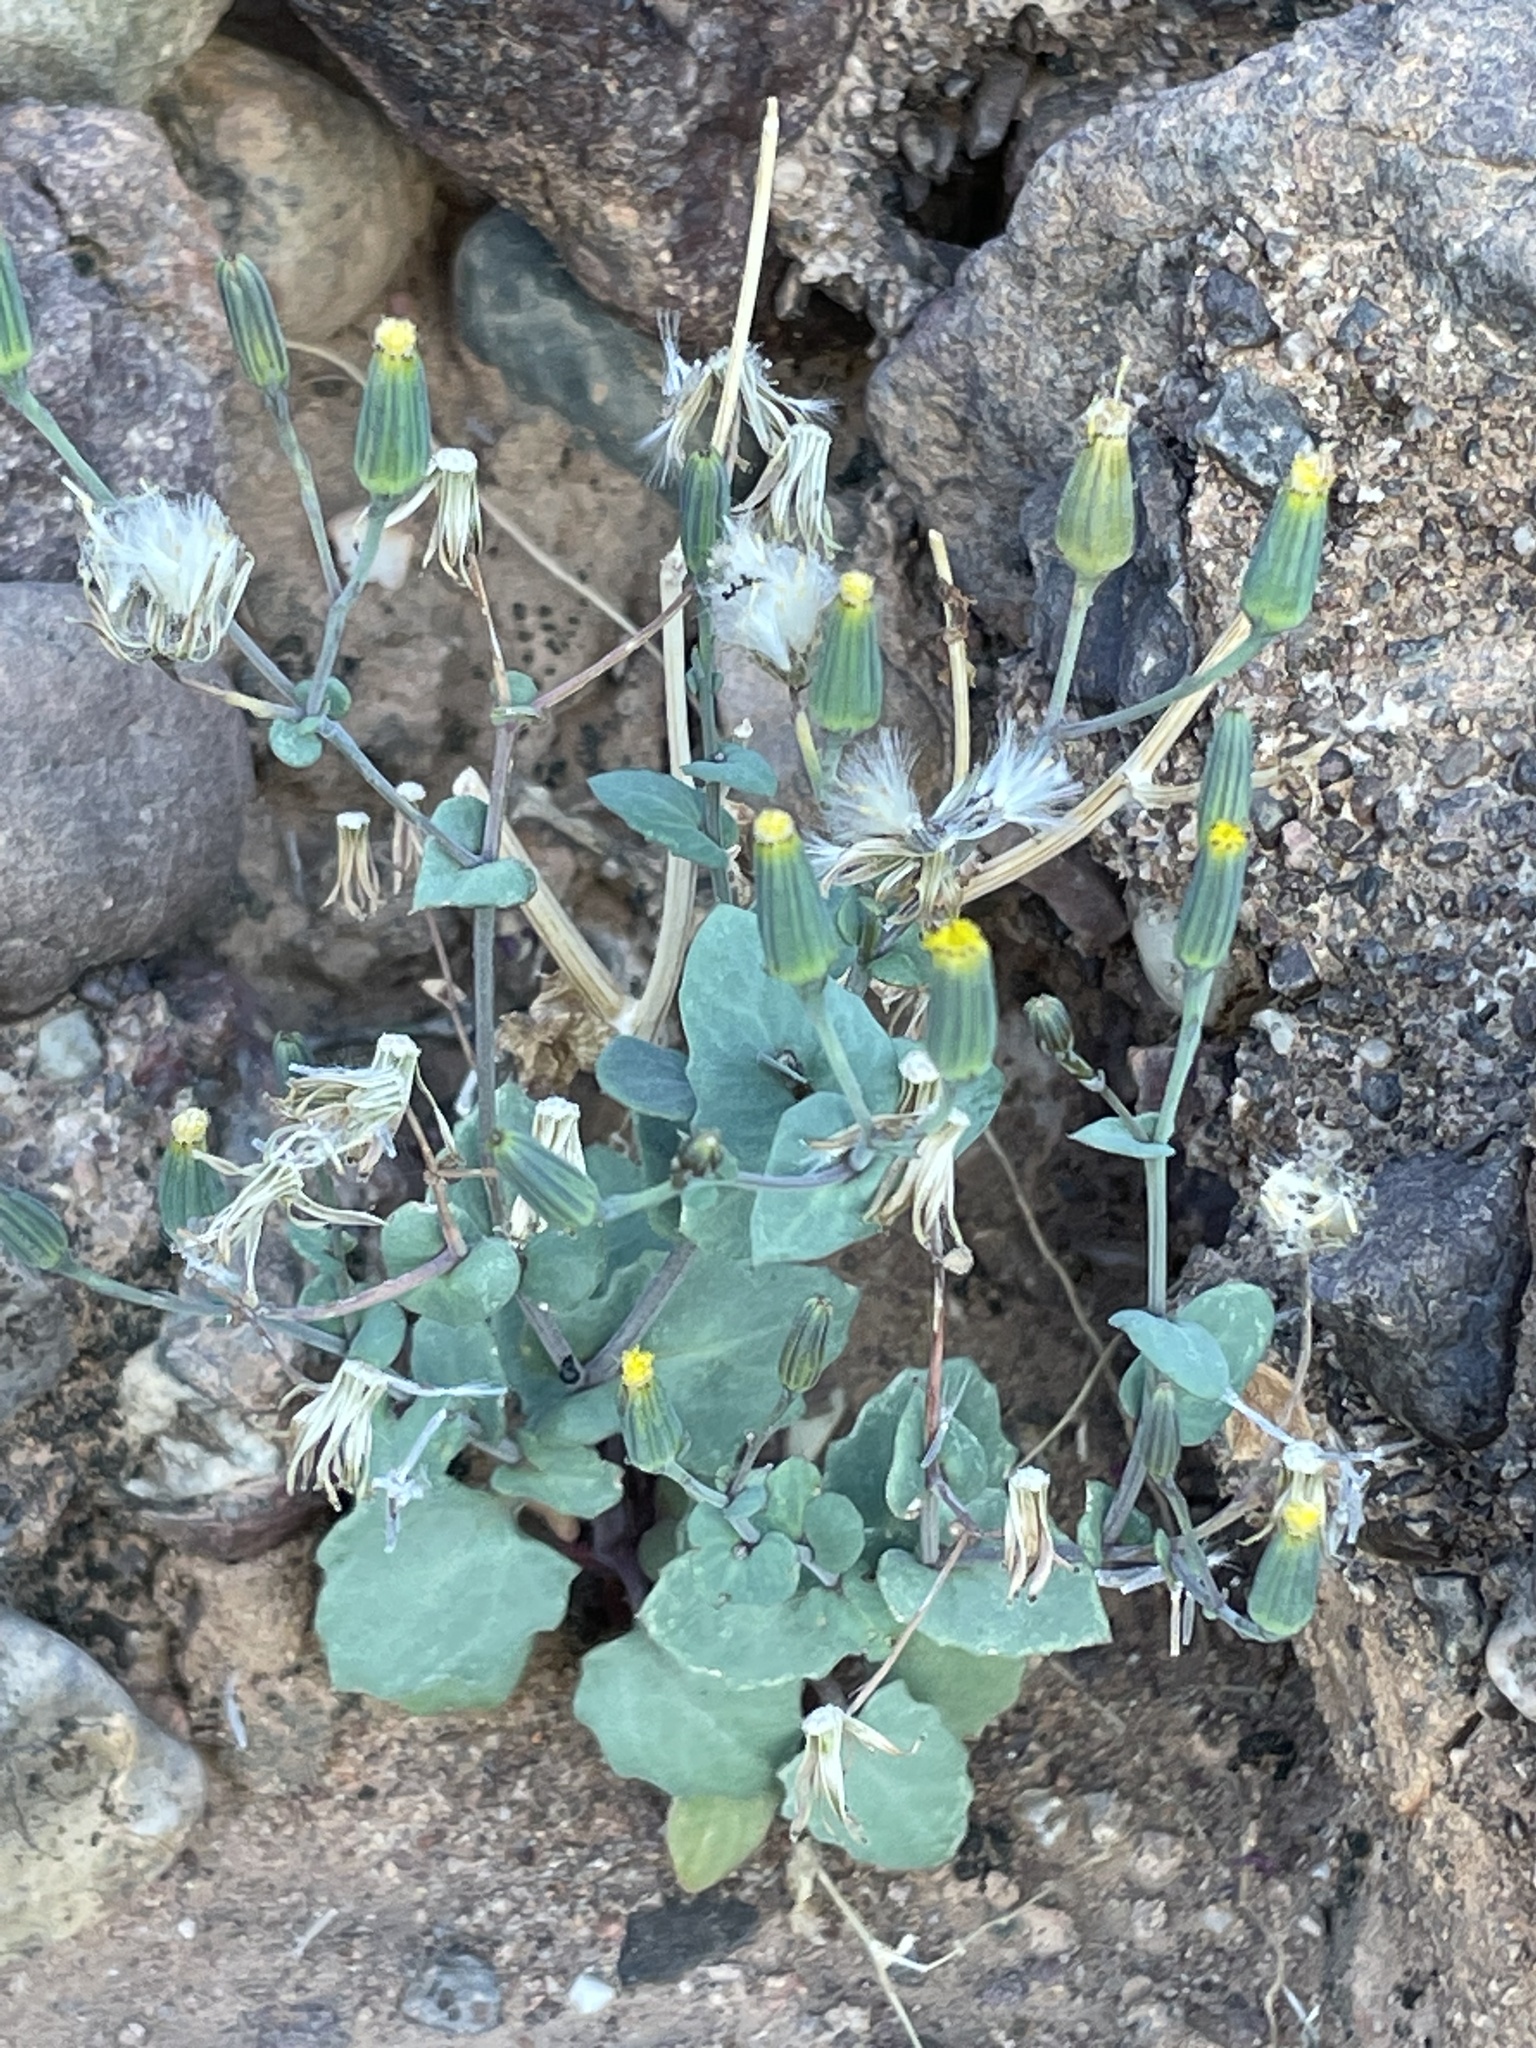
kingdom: Plantae
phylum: Tracheophyta
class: Magnoliopsida
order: Asterales
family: Asteraceae
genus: Senecio
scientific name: Senecio flavus
